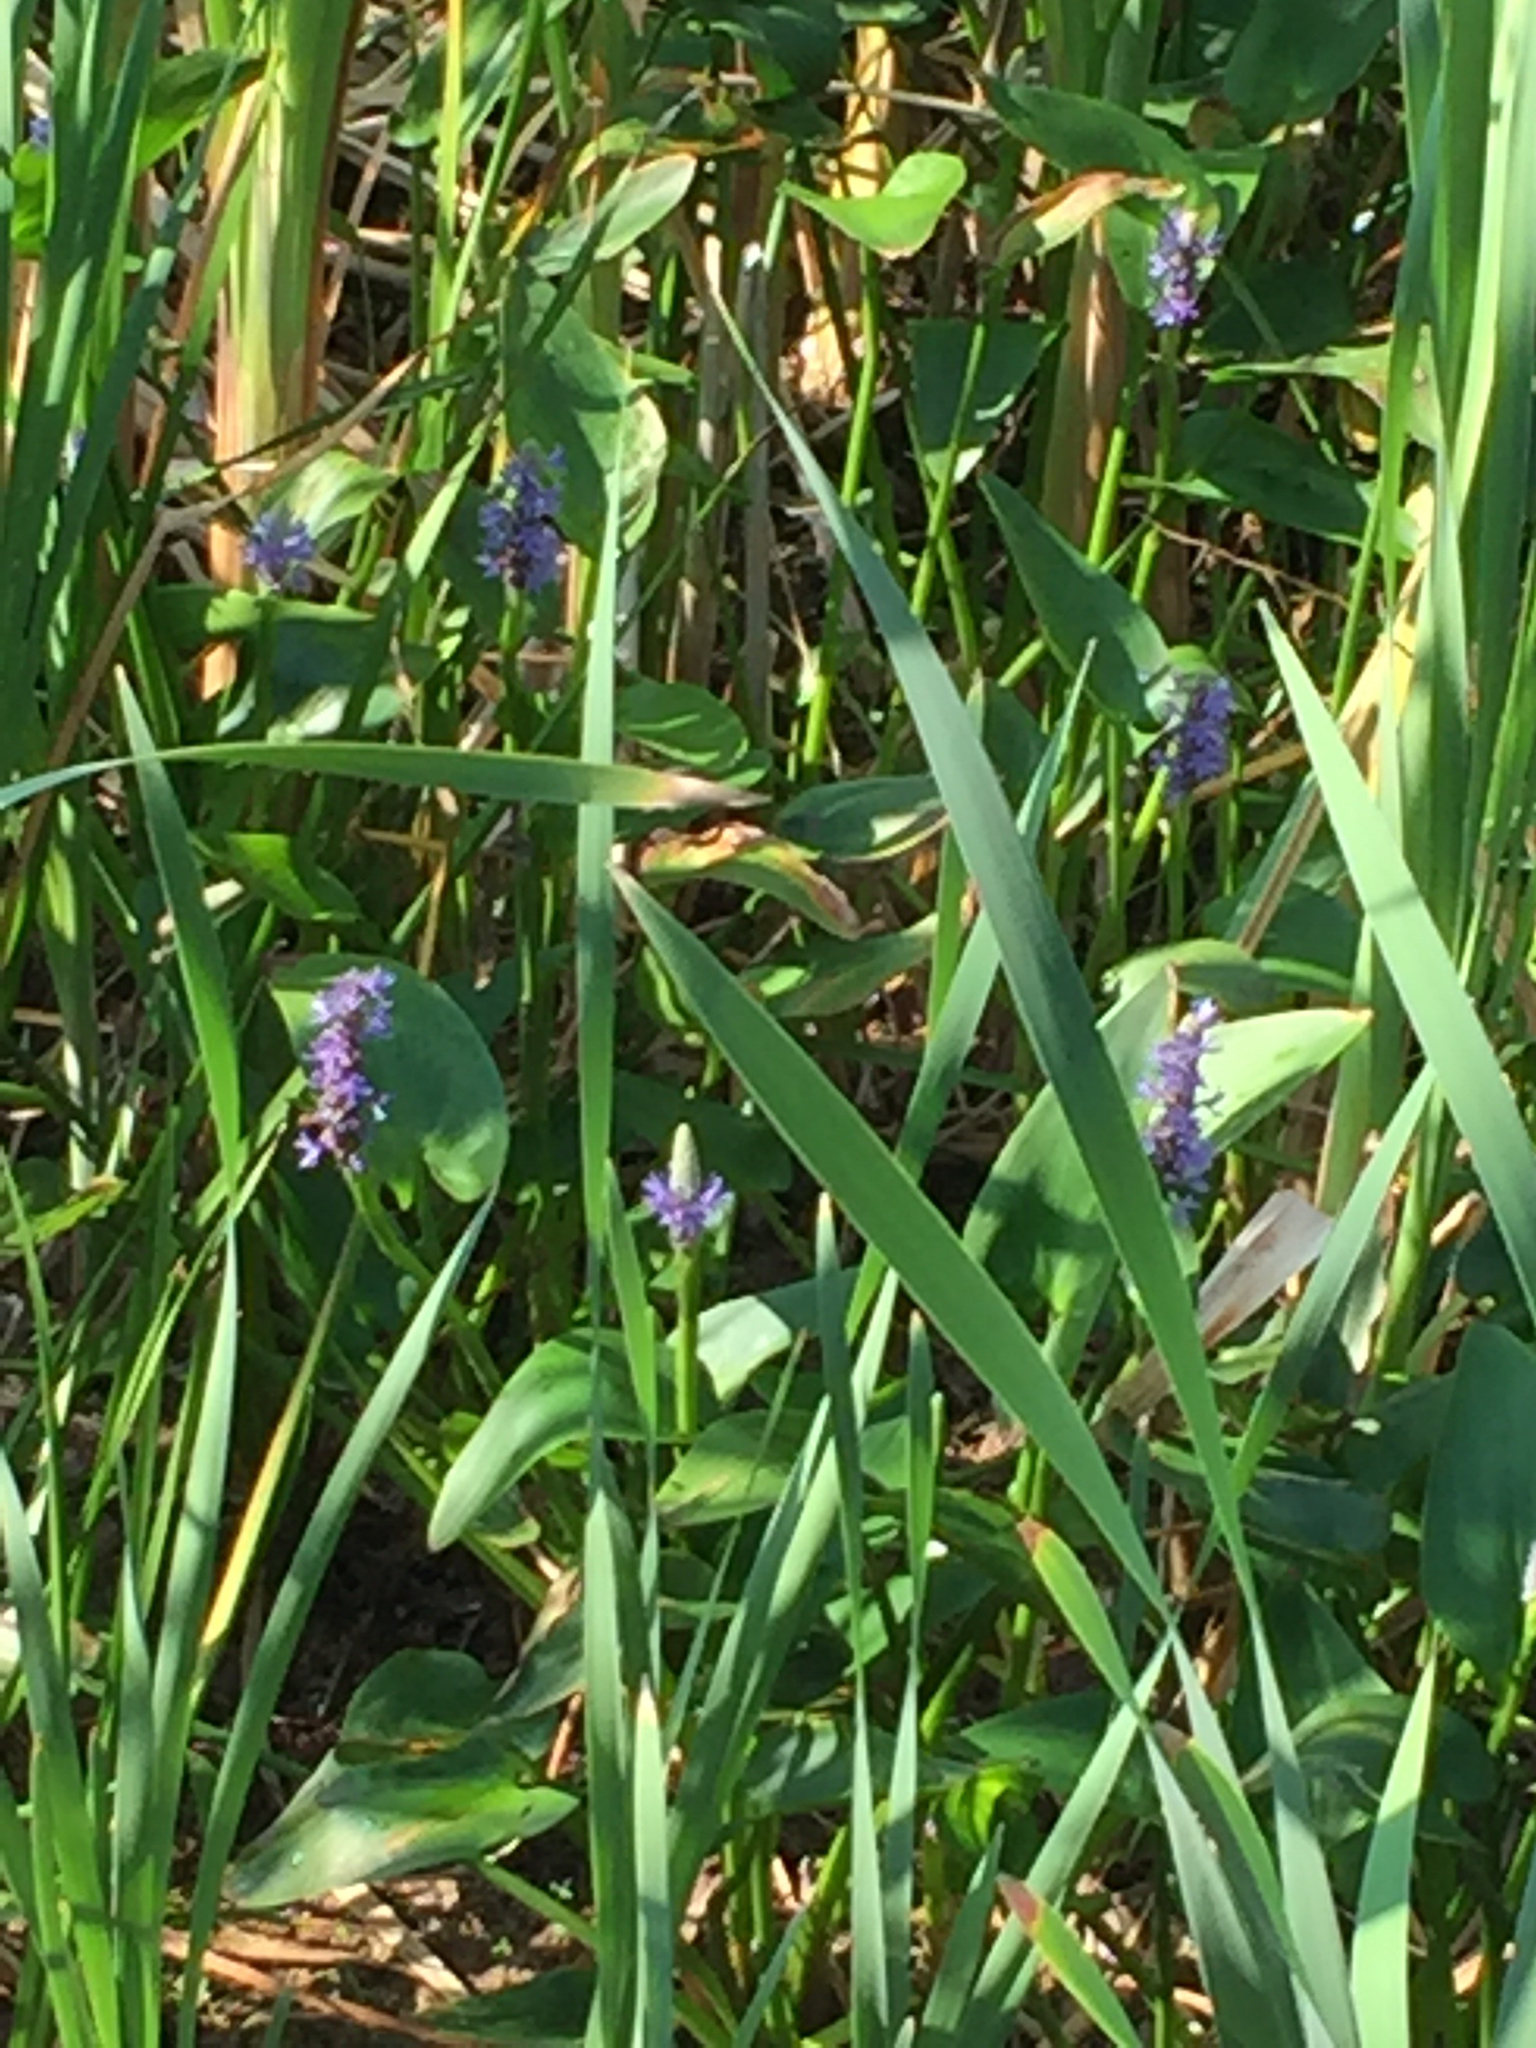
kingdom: Plantae
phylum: Tracheophyta
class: Liliopsida
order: Commelinales
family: Pontederiaceae
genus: Pontederia
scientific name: Pontederia cordata
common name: Pickerelweed
